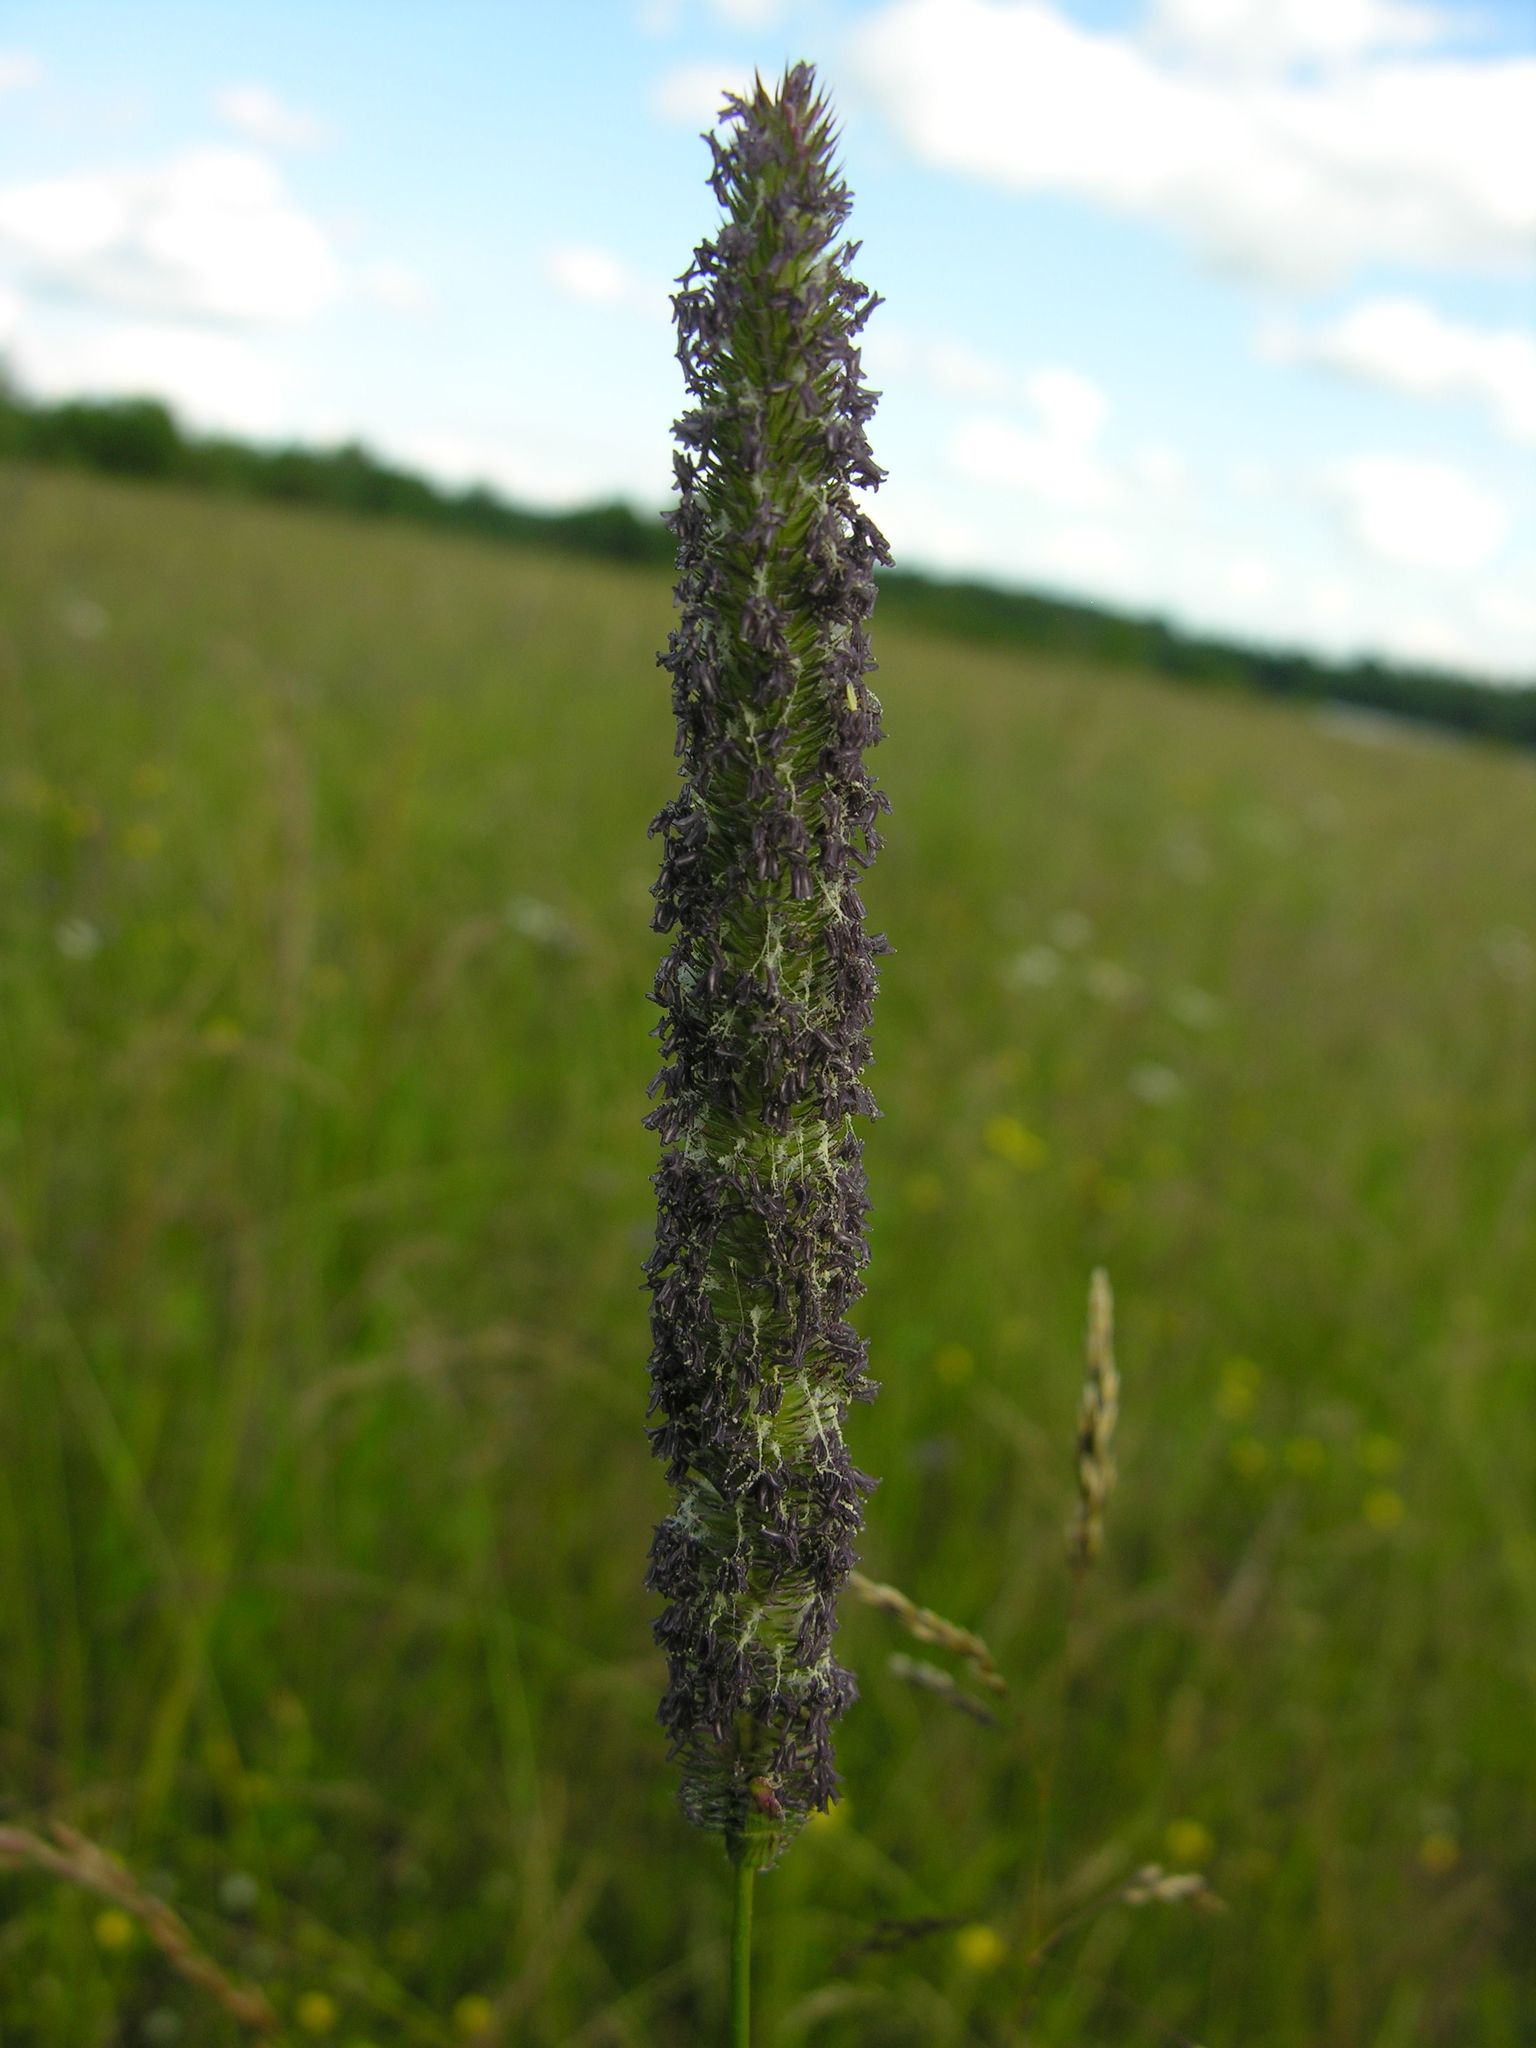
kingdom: Plantae
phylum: Tracheophyta
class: Liliopsida
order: Poales
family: Poaceae
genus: Phleum
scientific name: Phleum pratense
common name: Timothy grass
